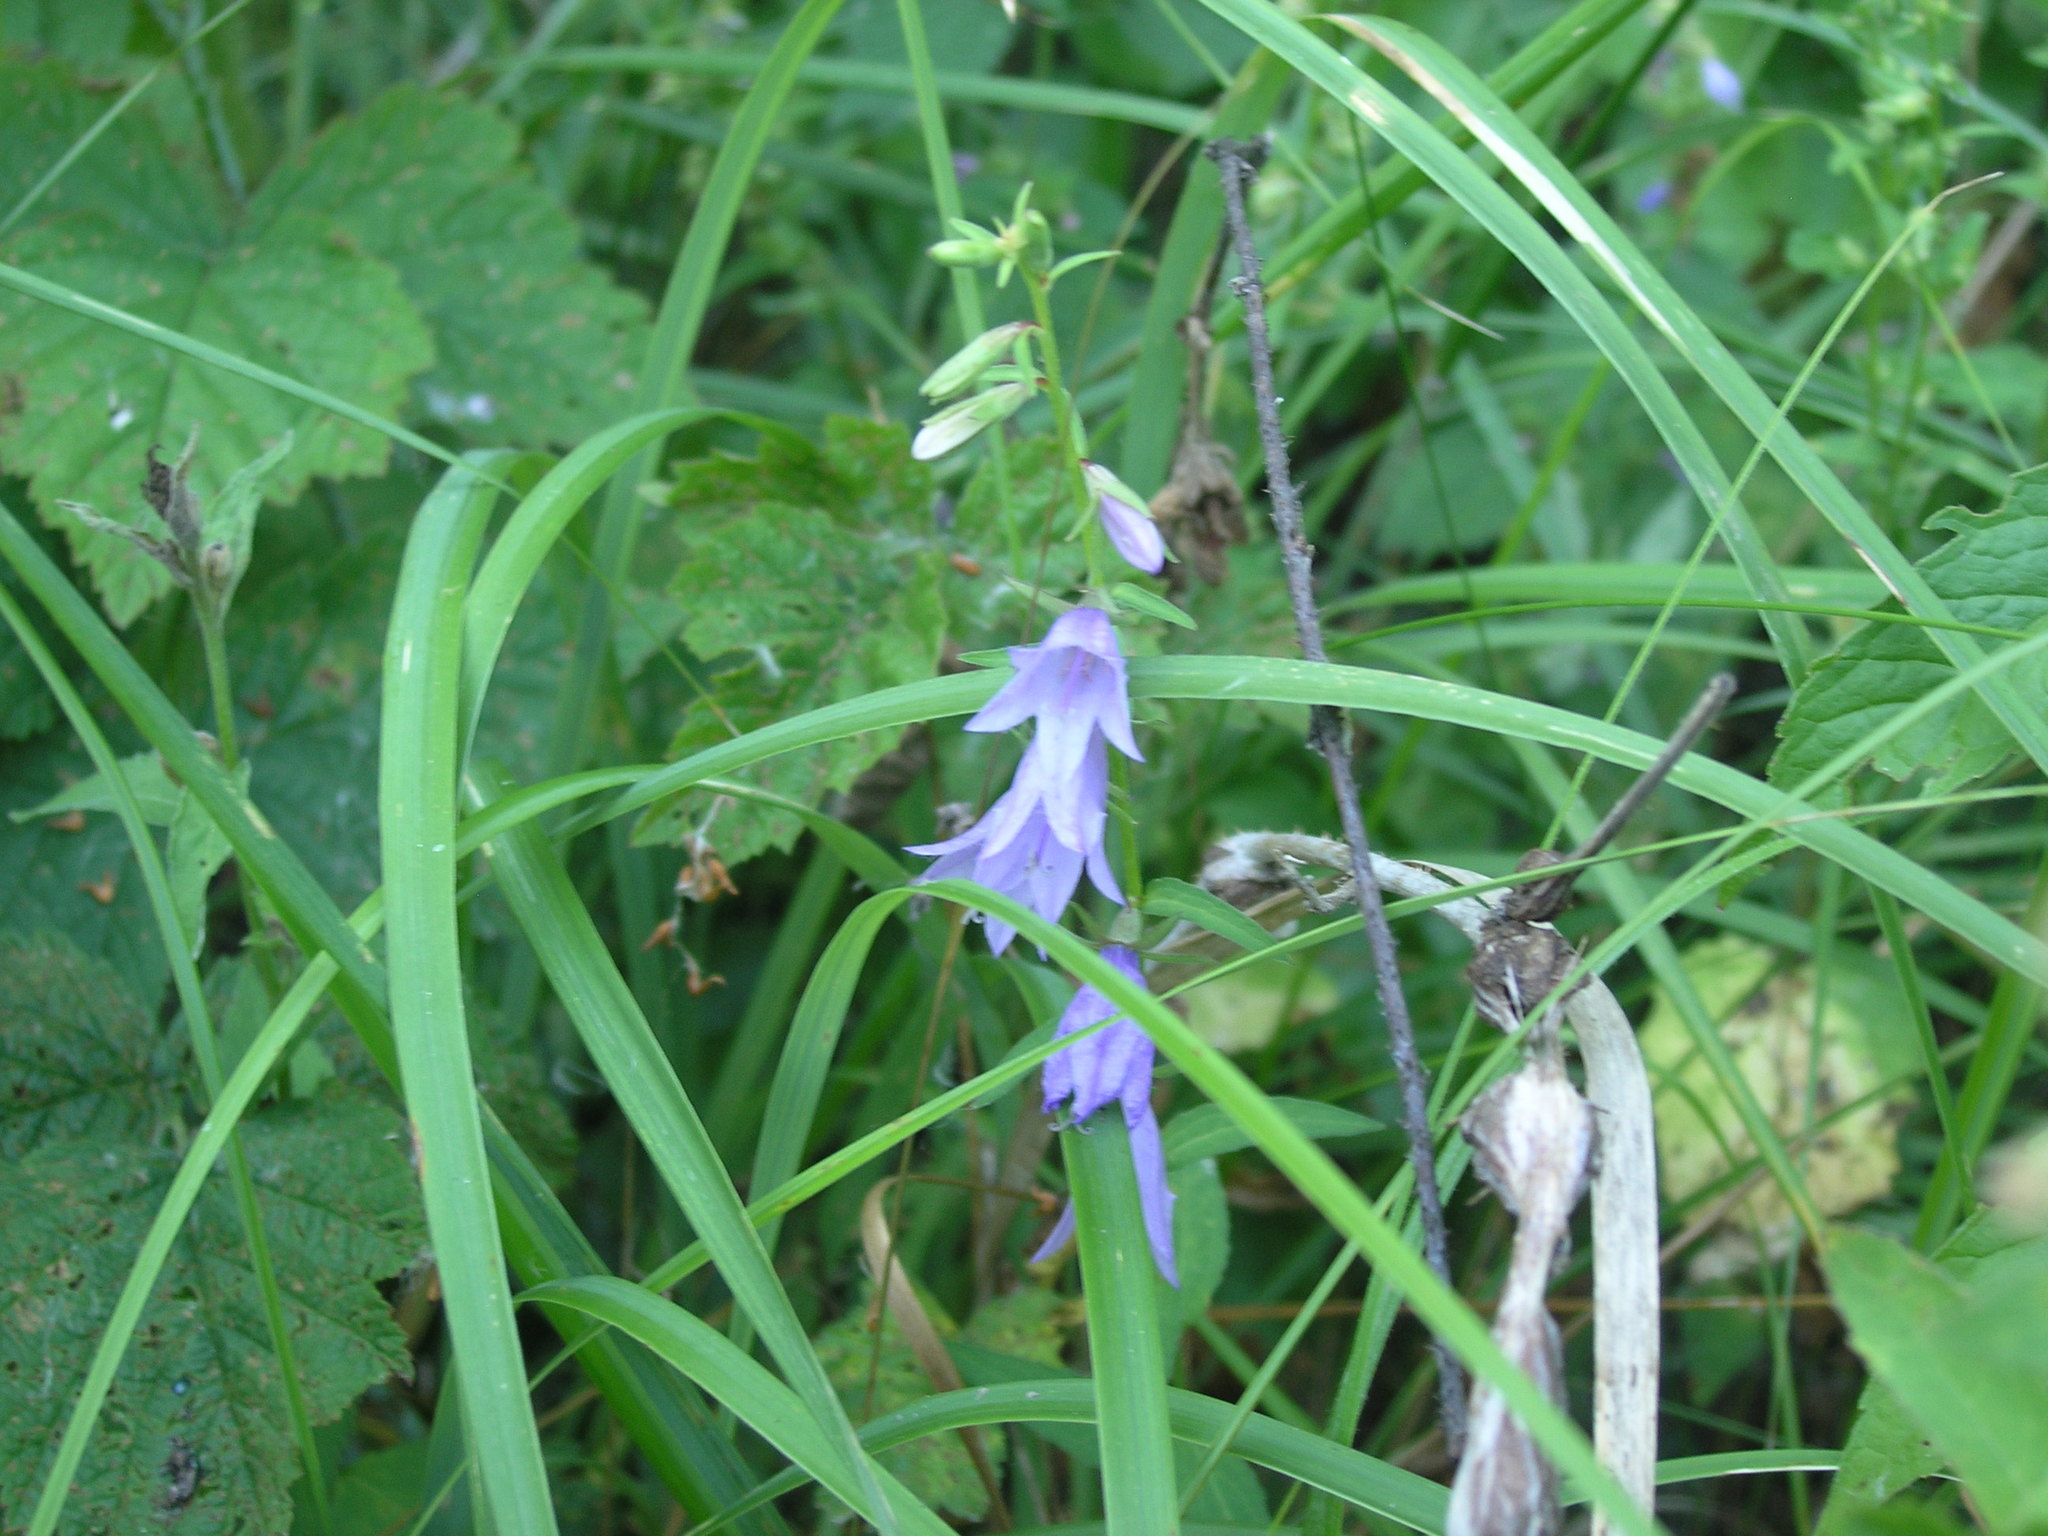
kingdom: Plantae
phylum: Tracheophyta
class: Magnoliopsida
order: Asterales
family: Campanulaceae
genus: Campanula
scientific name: Campanula rapunculoides
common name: Creeping bellflower
